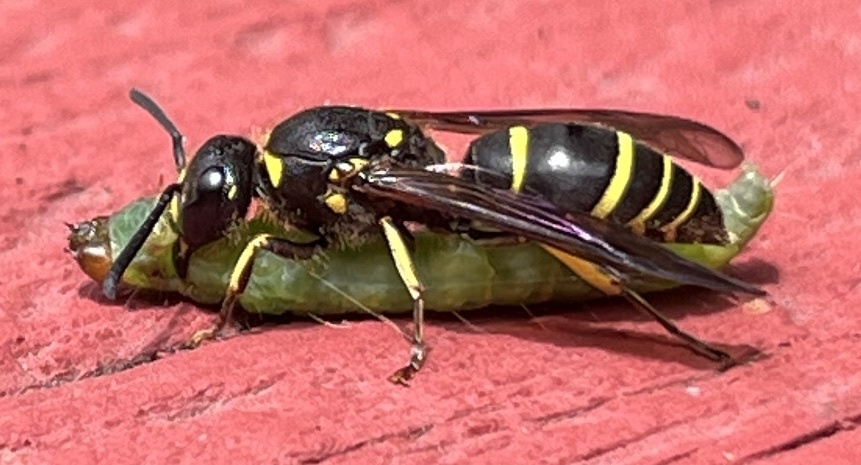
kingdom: Animalia
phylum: Arthropoda
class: Insecta
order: Hymenoptera
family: Vespidae
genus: Ancistrocerus
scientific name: Ancistrocerus
